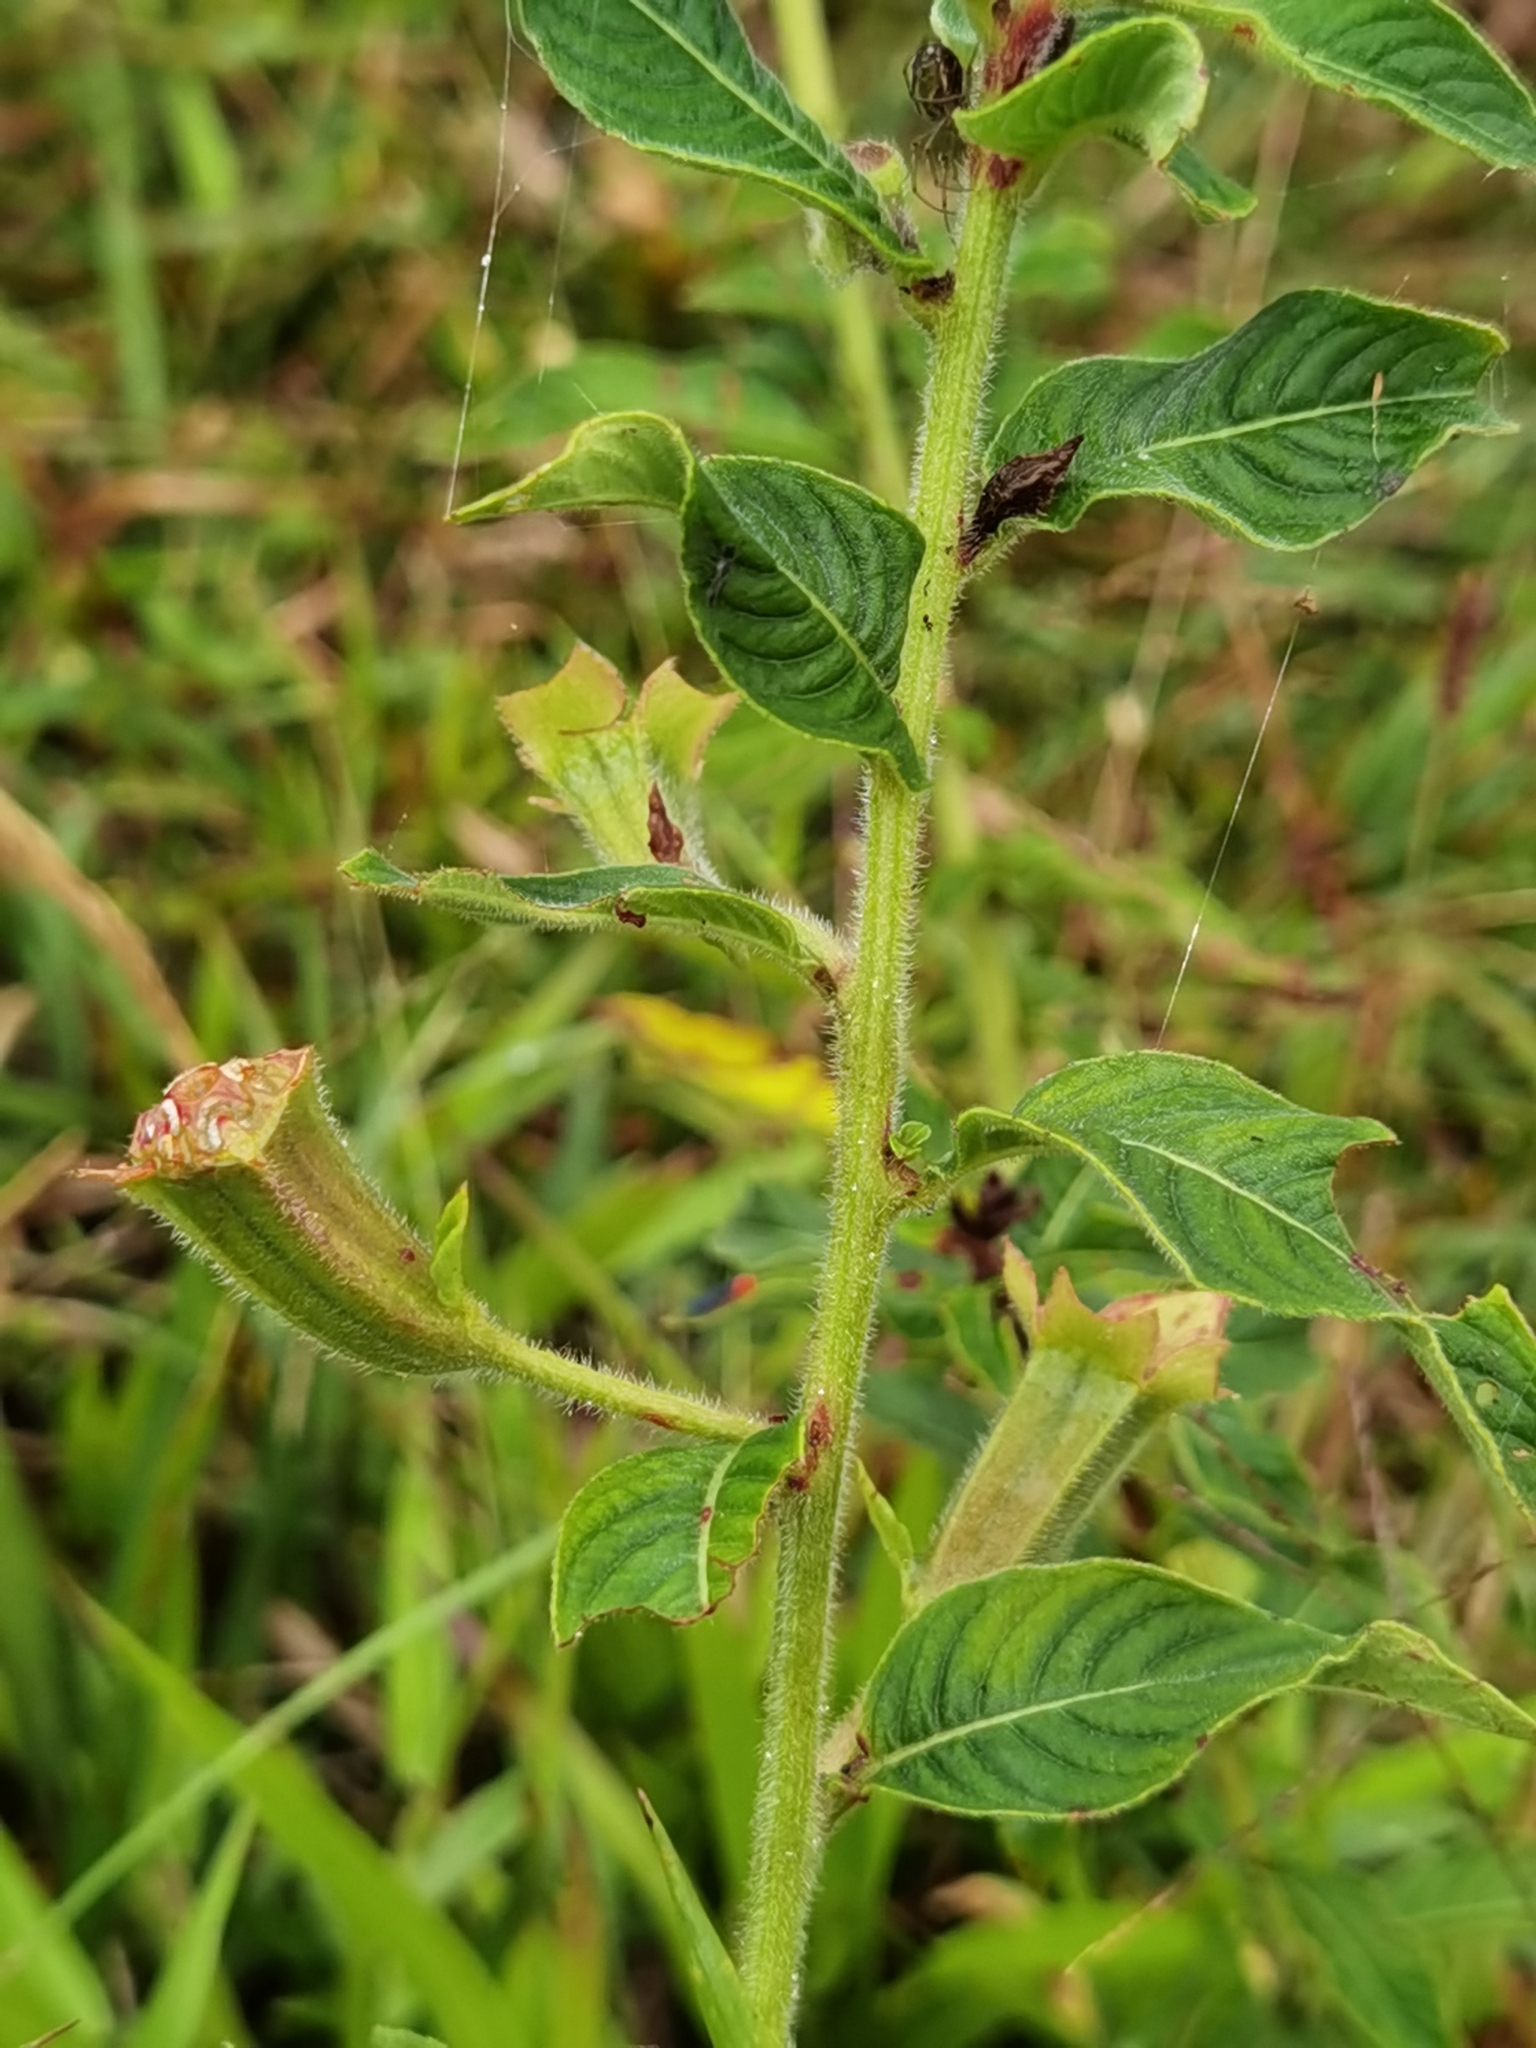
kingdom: Plantae
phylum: Tracheophyta
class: Magnoliopsida
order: Myrtales
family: Onagraceae
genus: Ludwigia
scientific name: Ludwigia peruviana
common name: Peruvian primrose-willow
